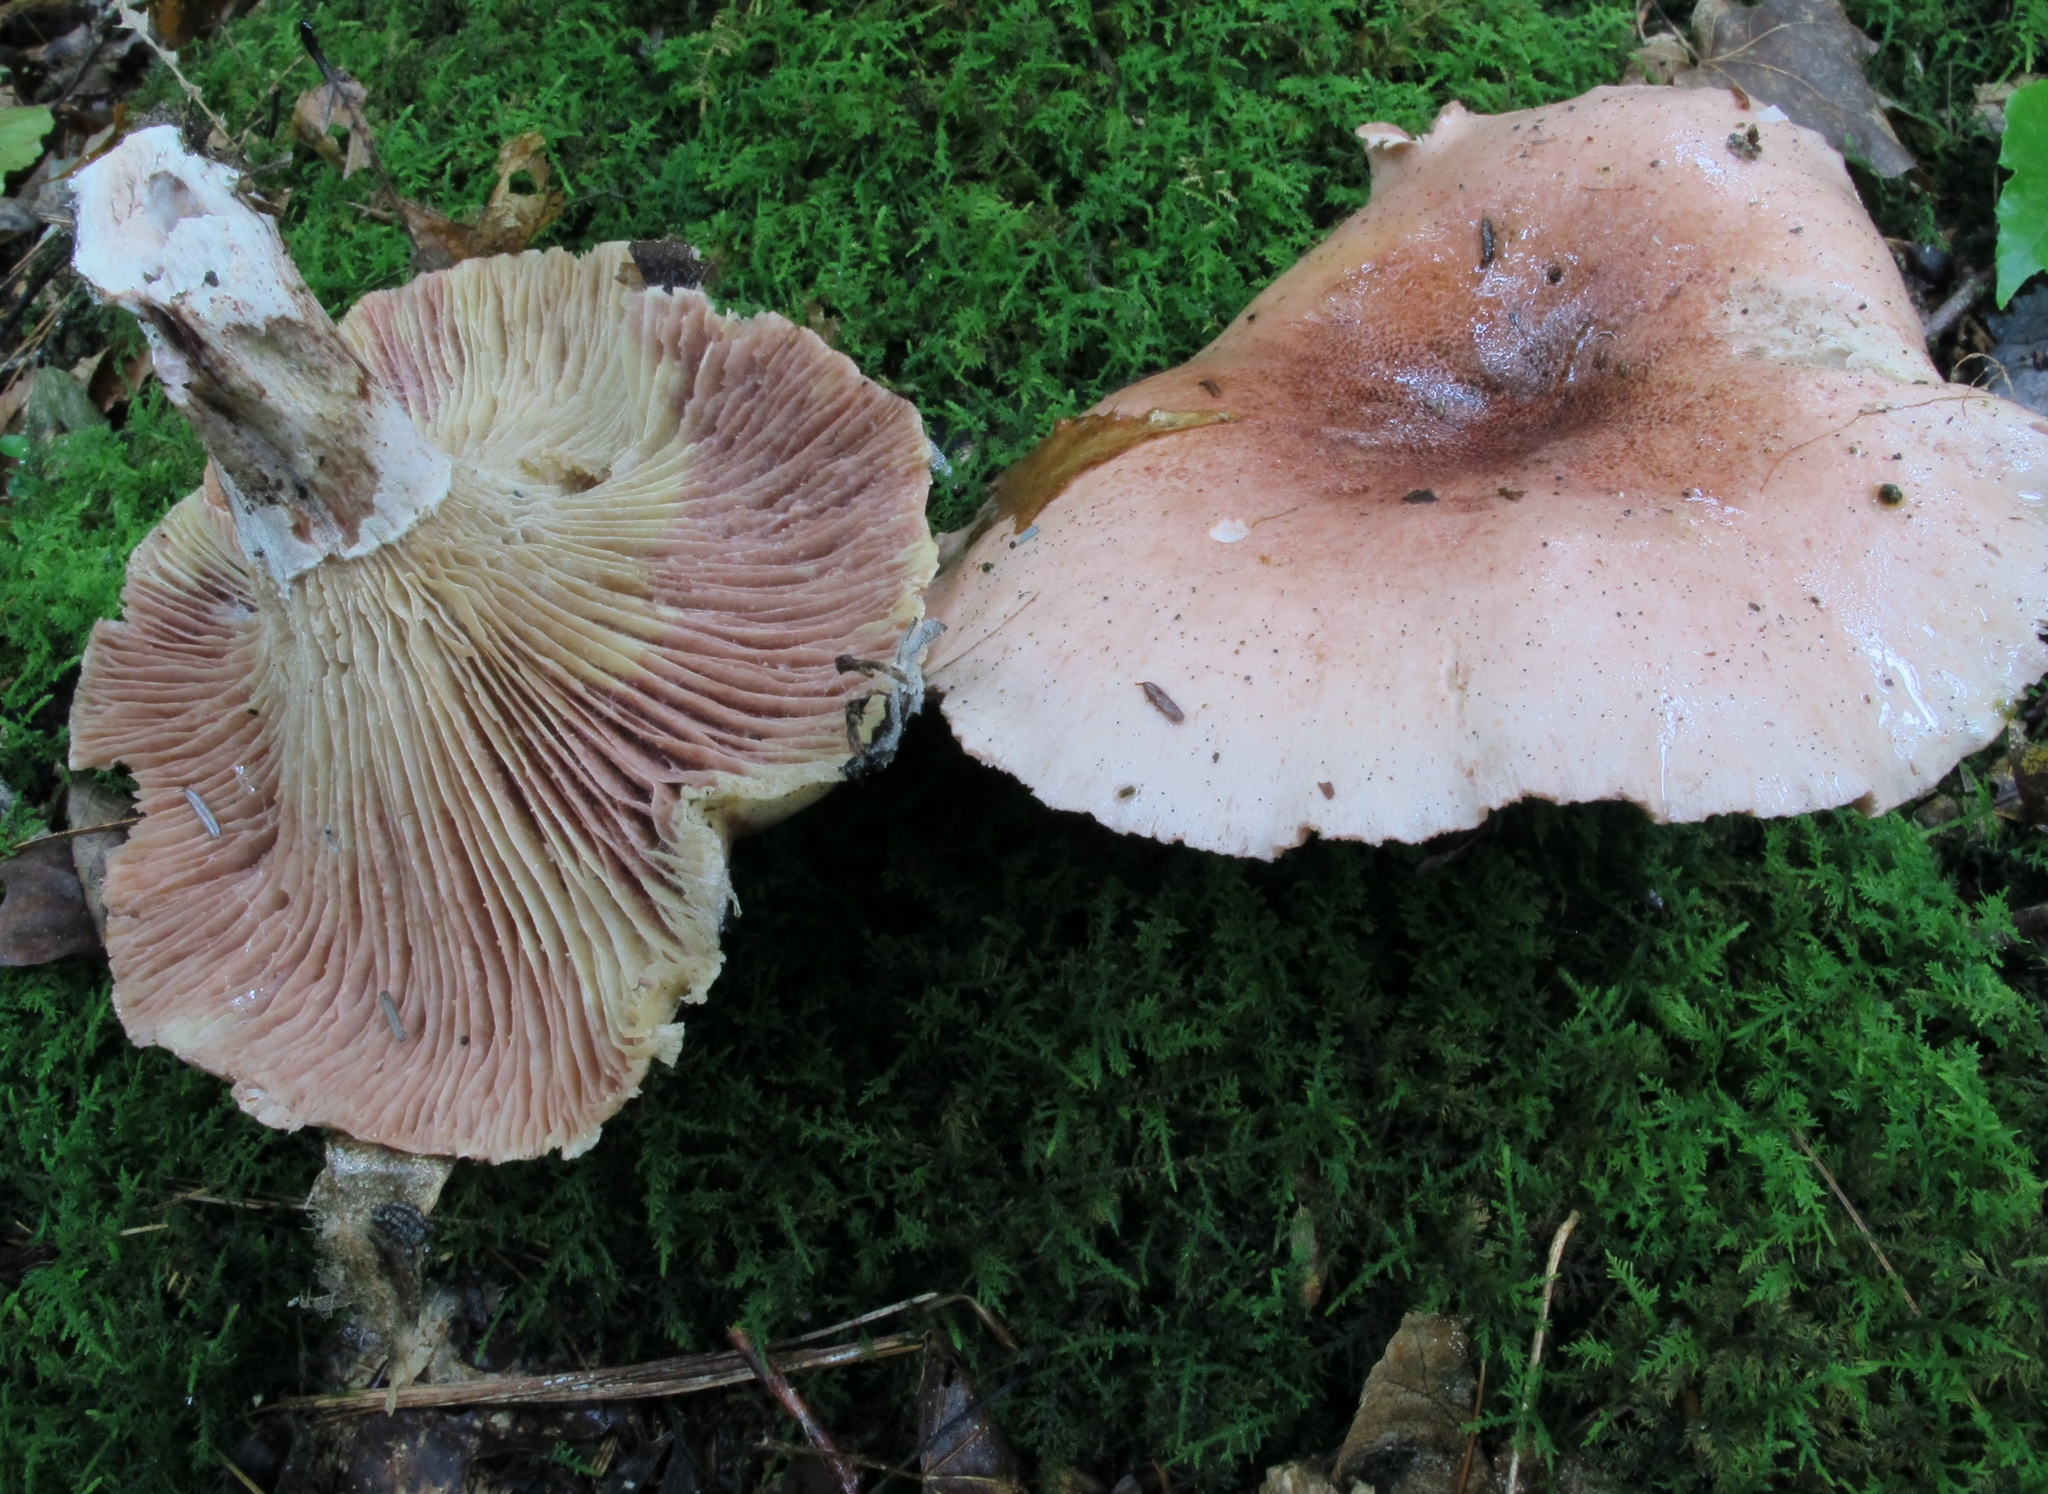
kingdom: Fungi
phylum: Basidiomycota
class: Agaricomycetes
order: Agaricales
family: Hygrophoraceae
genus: Hygrophorus
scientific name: Hygrophorus russula
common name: Pinkmottle woodwax
